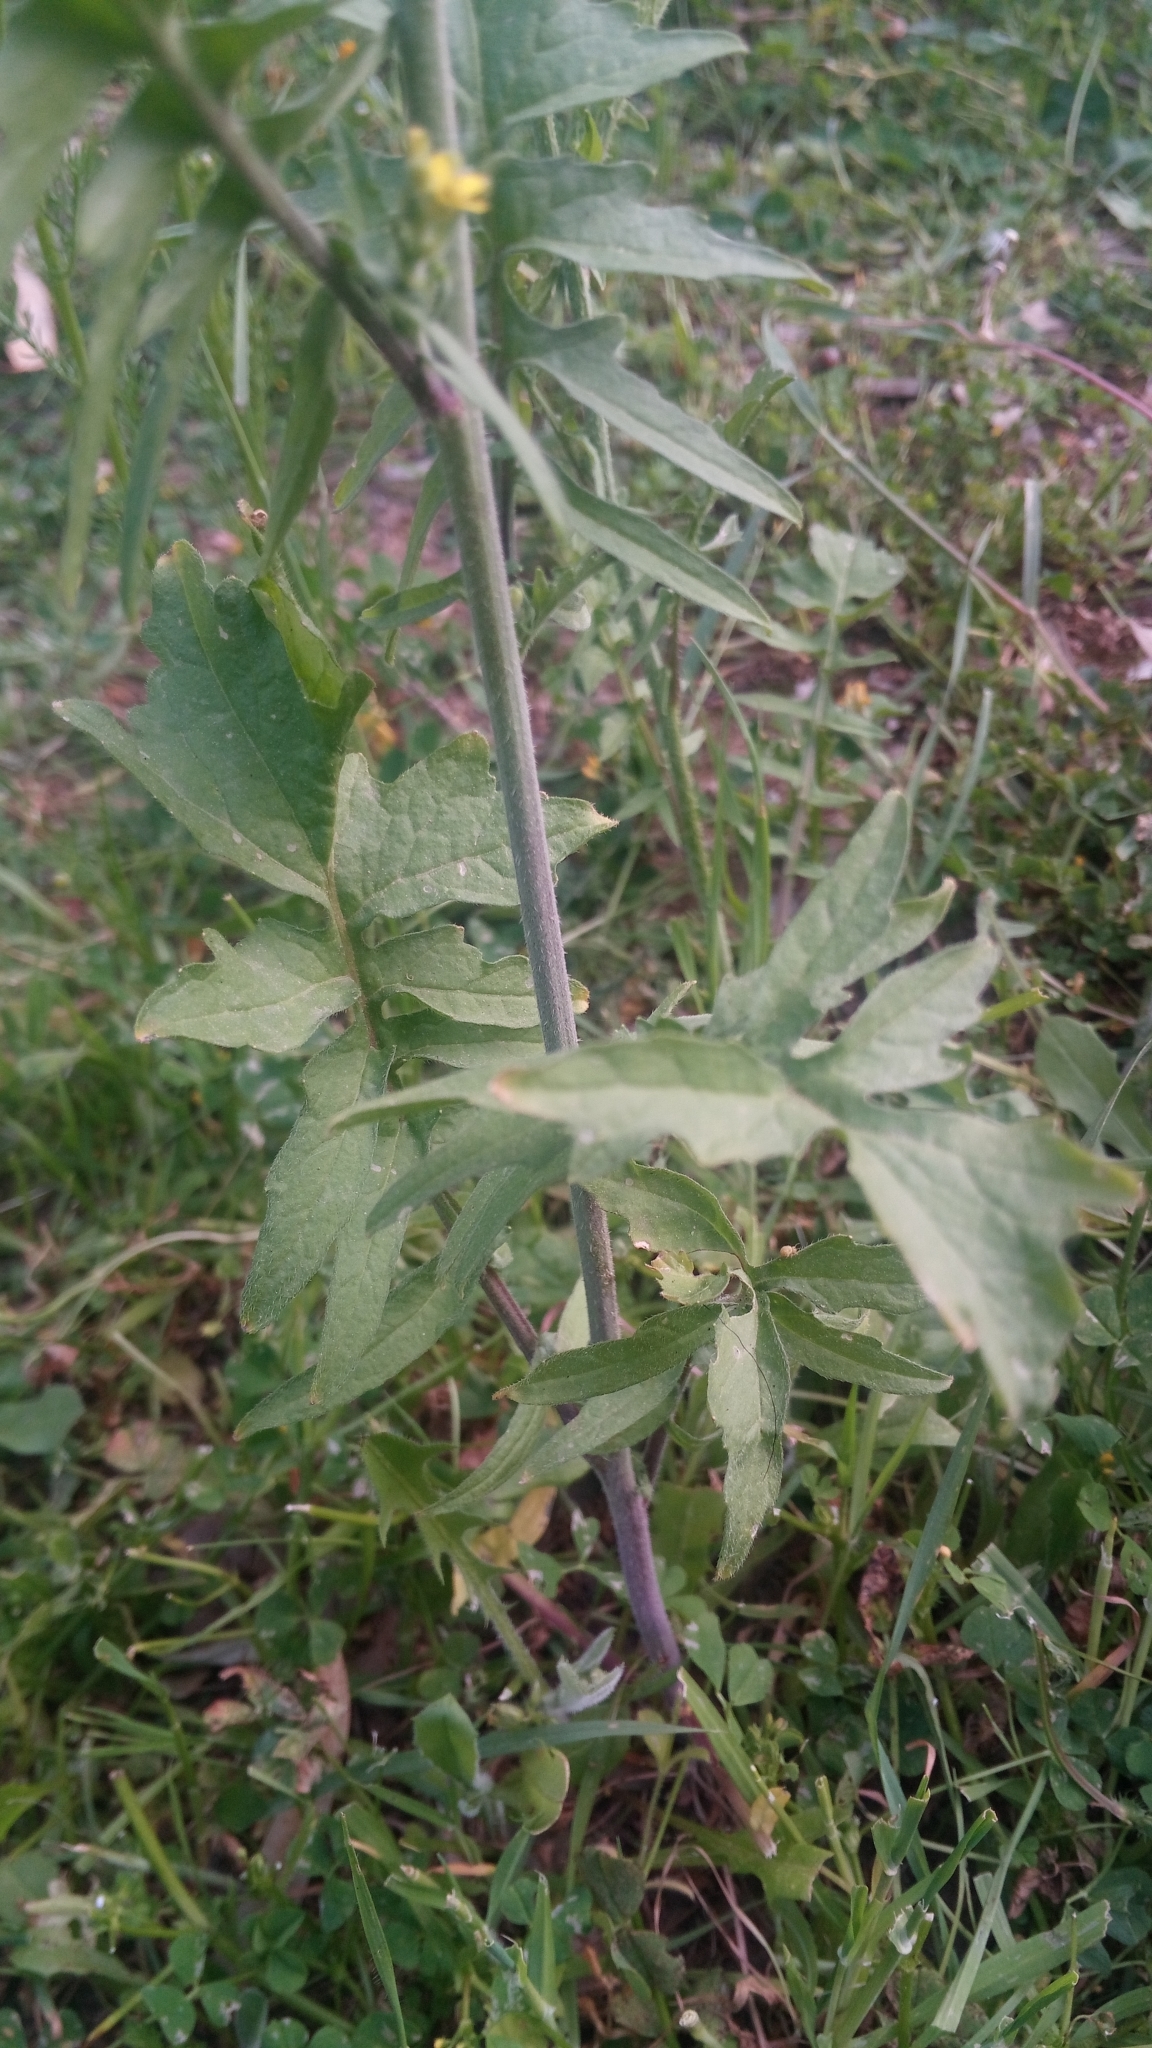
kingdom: Plantae
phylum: Tracheophyta
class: Magnoliopsida
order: Brassicales
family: Brassicaceae
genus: Sisymbrium
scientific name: Sisymbrium officinale
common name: Hedge mustard
